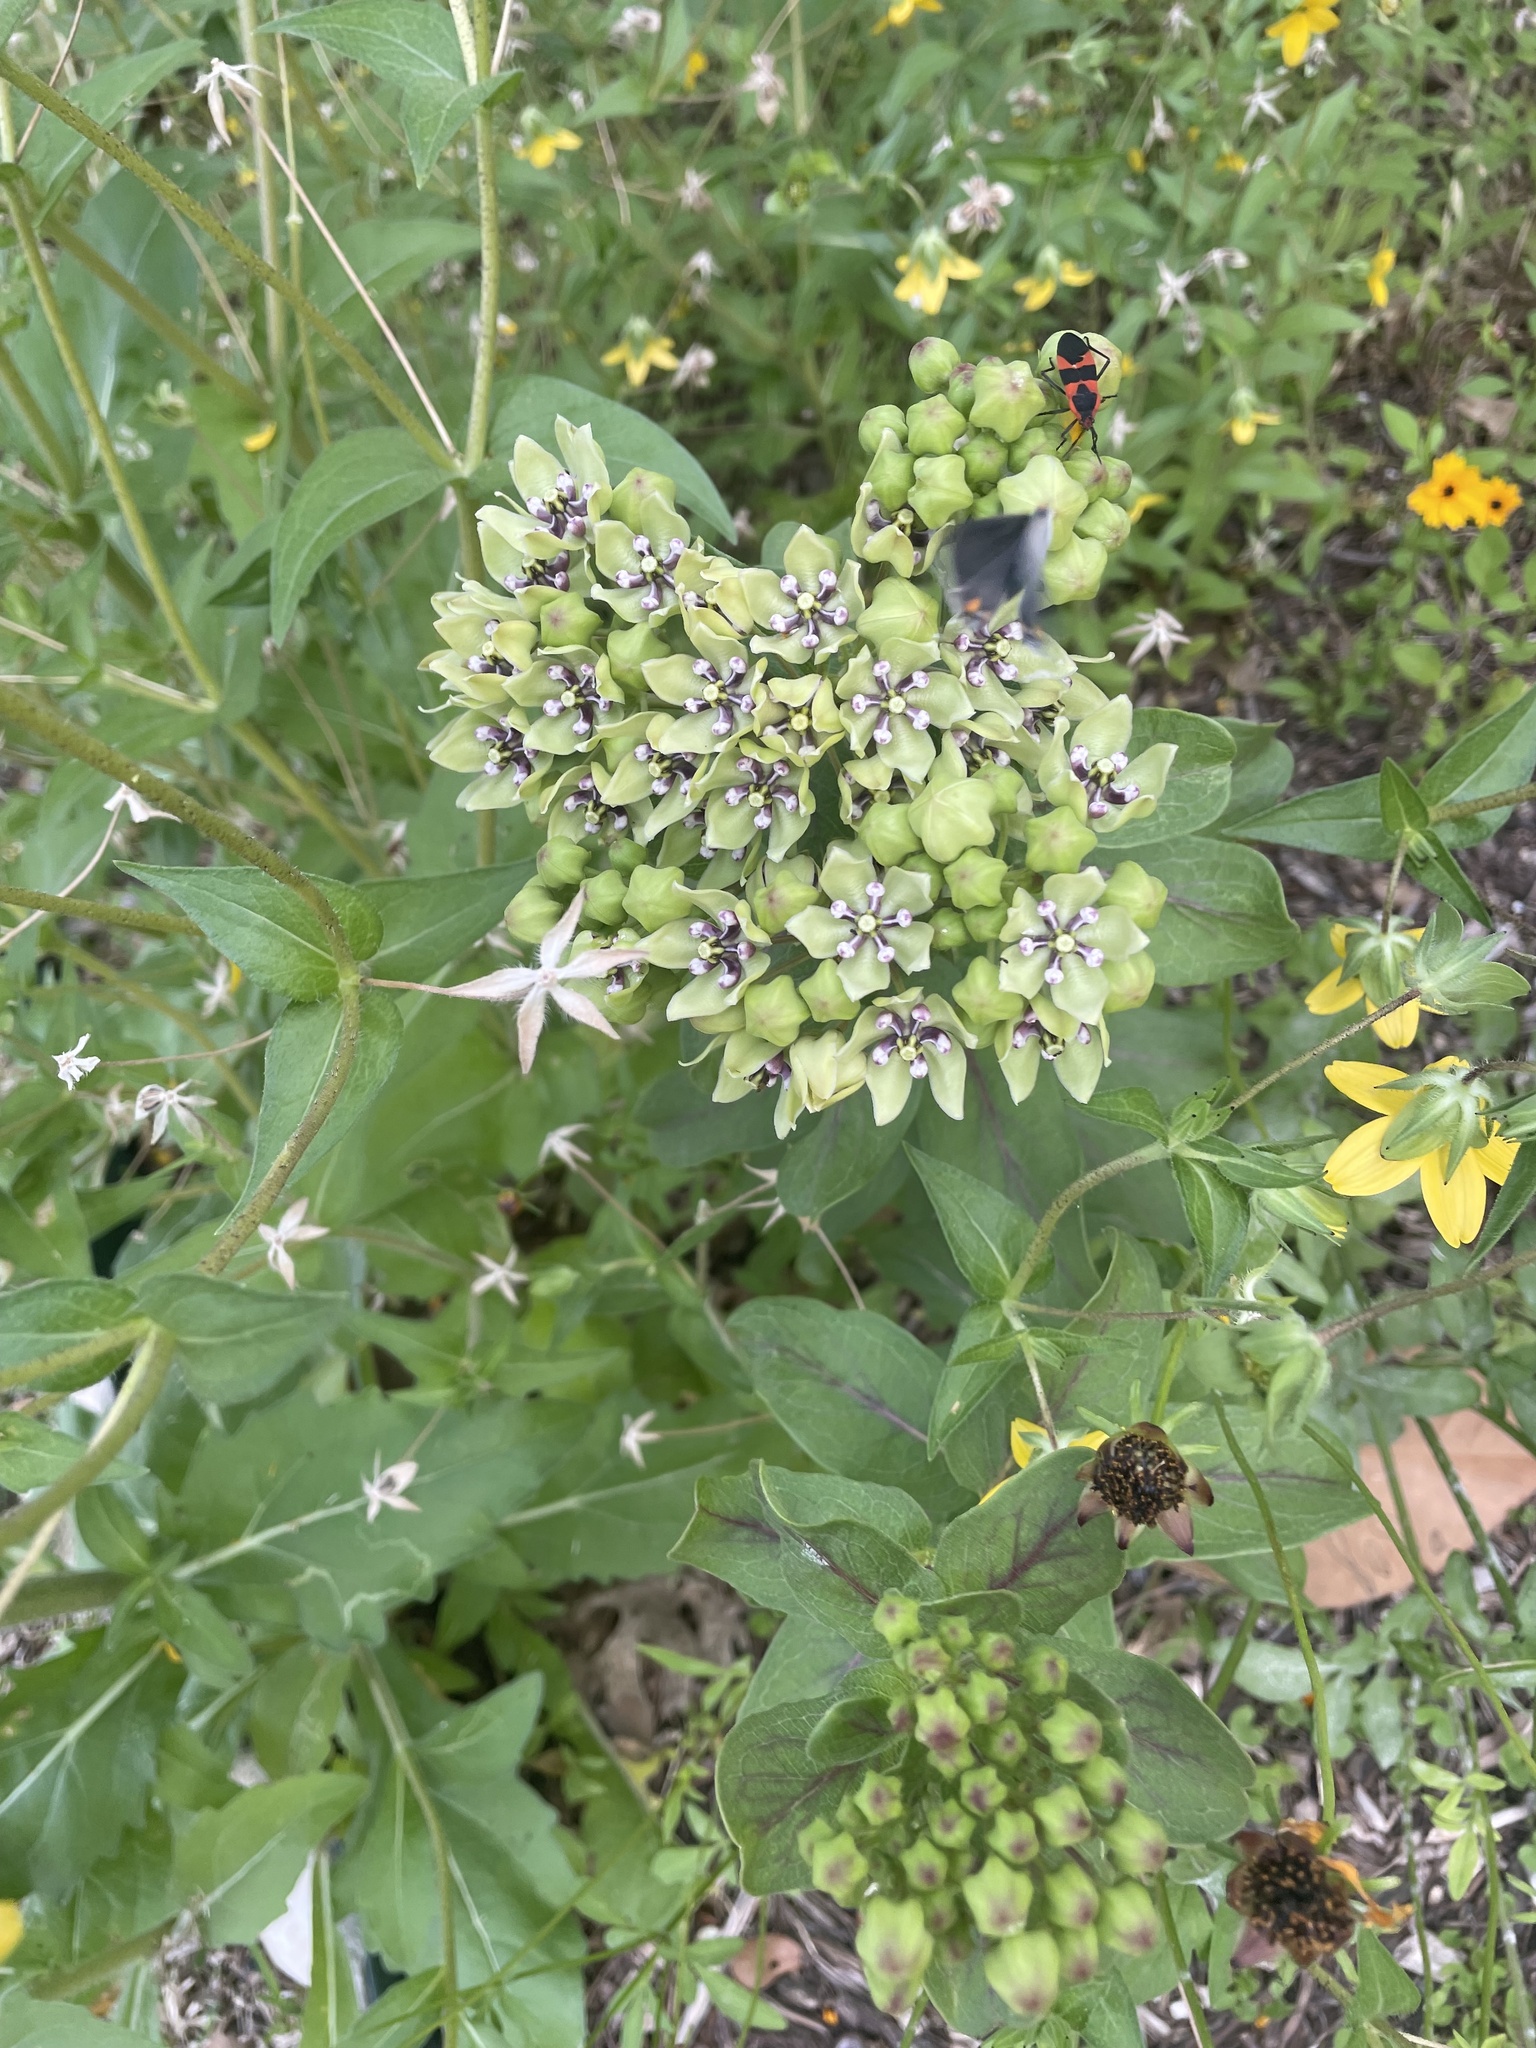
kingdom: Plantae
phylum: Tracheophyta
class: Magnoliopsida
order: Gentianales
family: Apocynaceae
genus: Asclepias
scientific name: Asclepias viridis
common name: Antelope-horns
